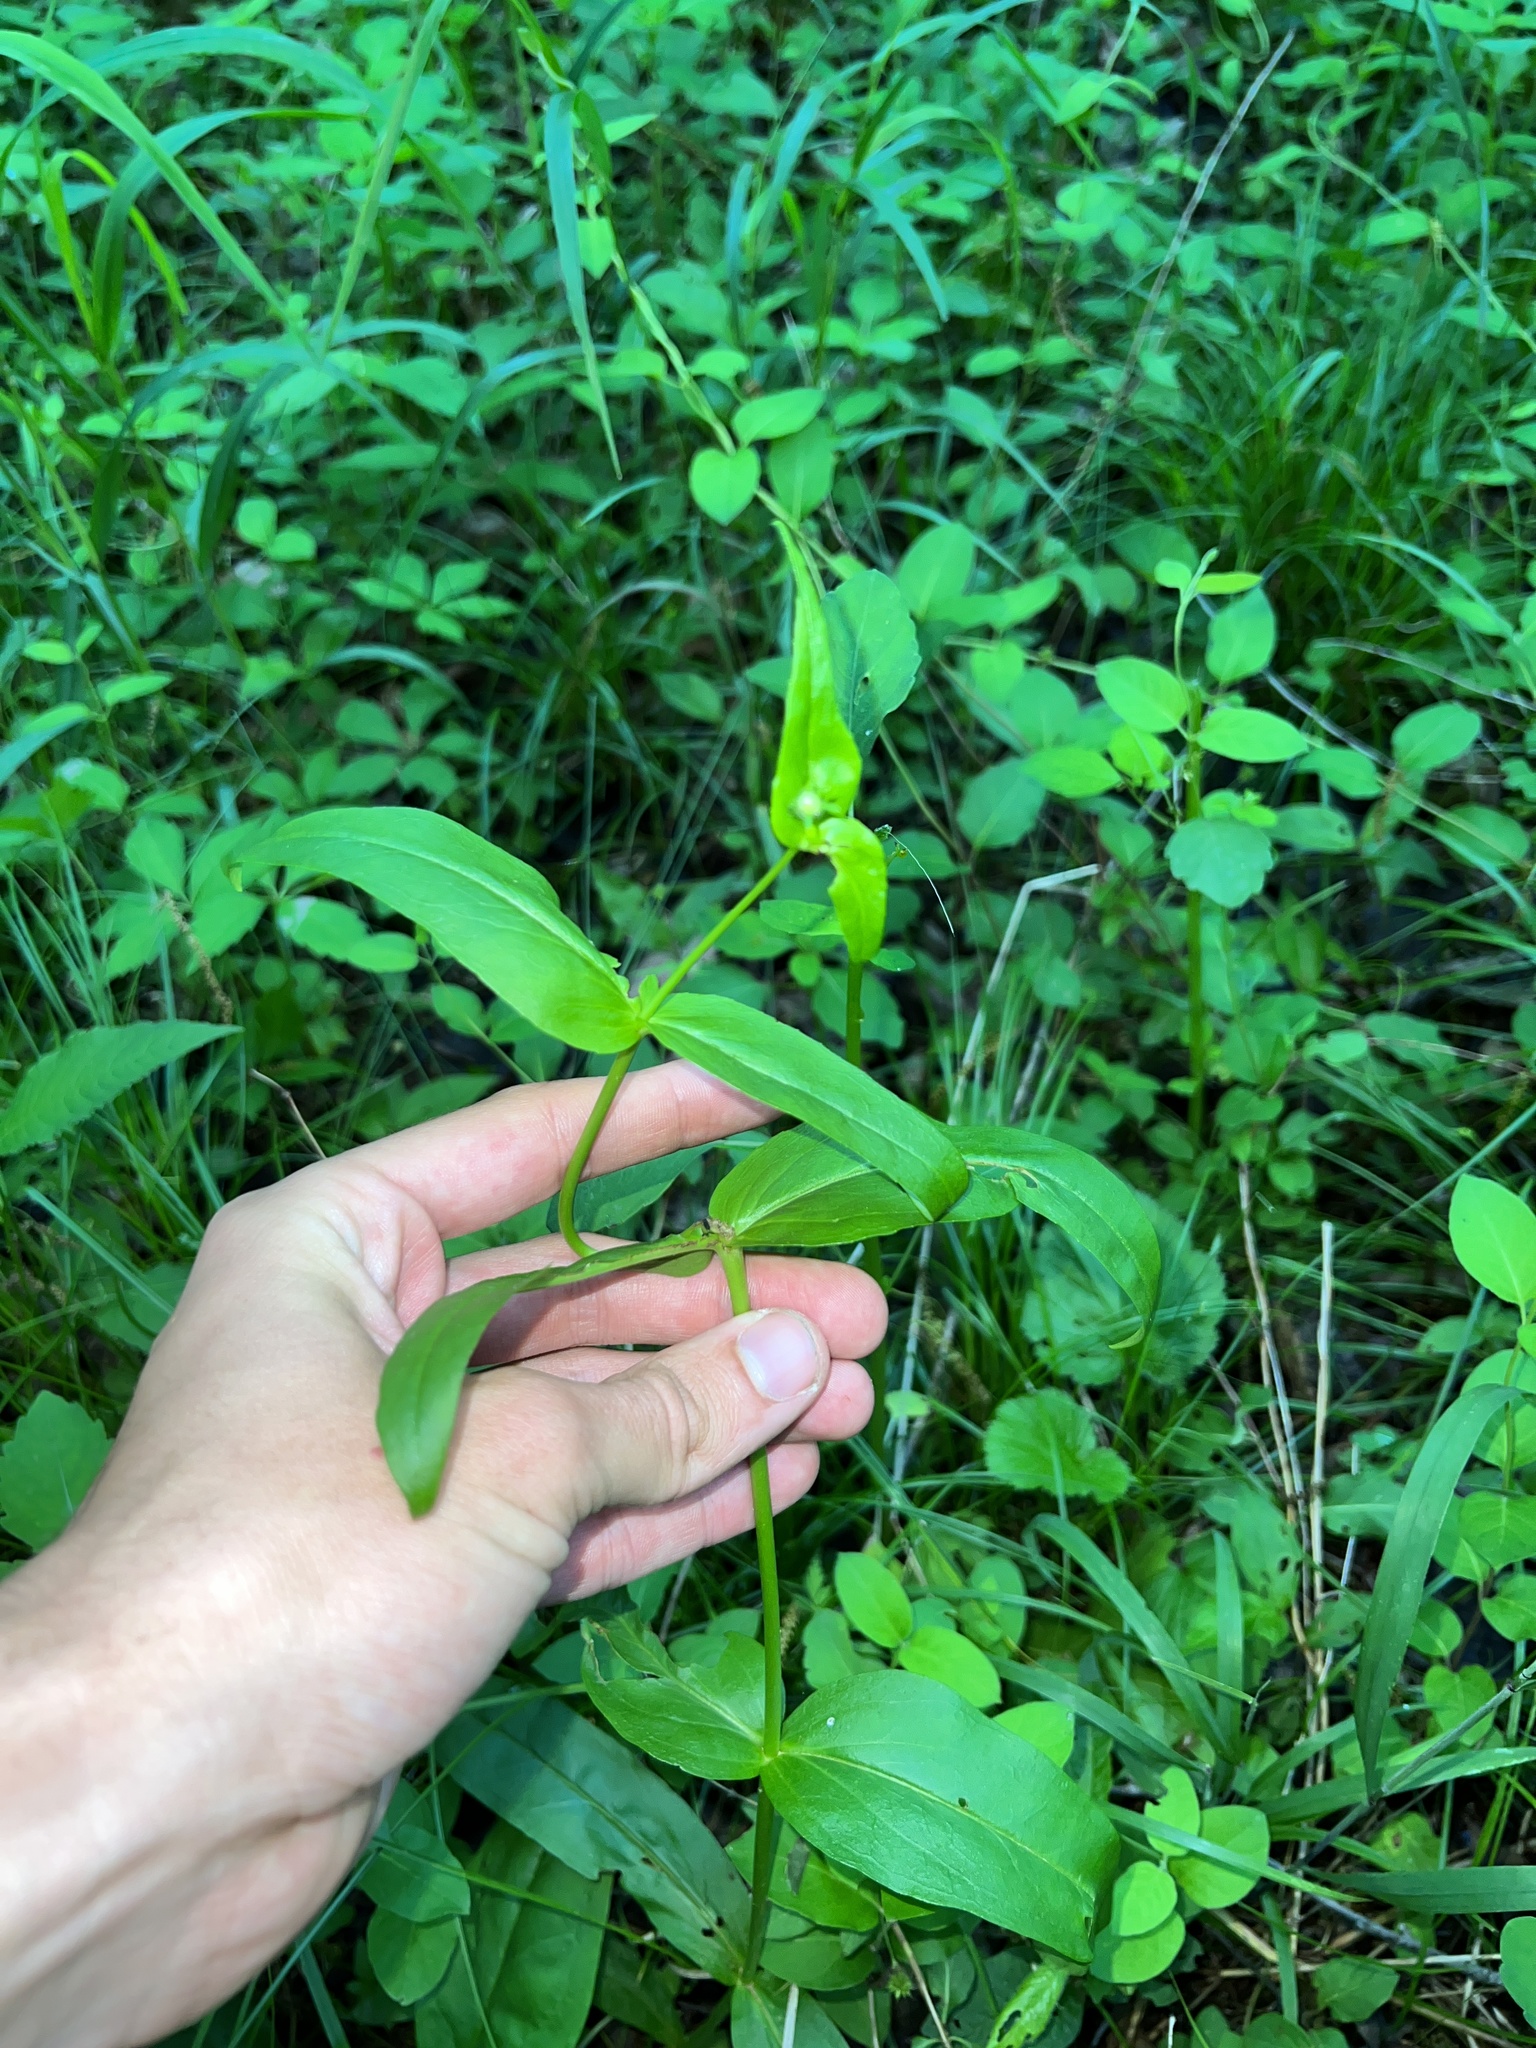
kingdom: Plantae
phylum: Tracheophyta
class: Magnoliopsida
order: Lamiales
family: Plantaginaceae
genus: Penstemon
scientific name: Penstemon digitalis
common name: Foxglove beardtongue
